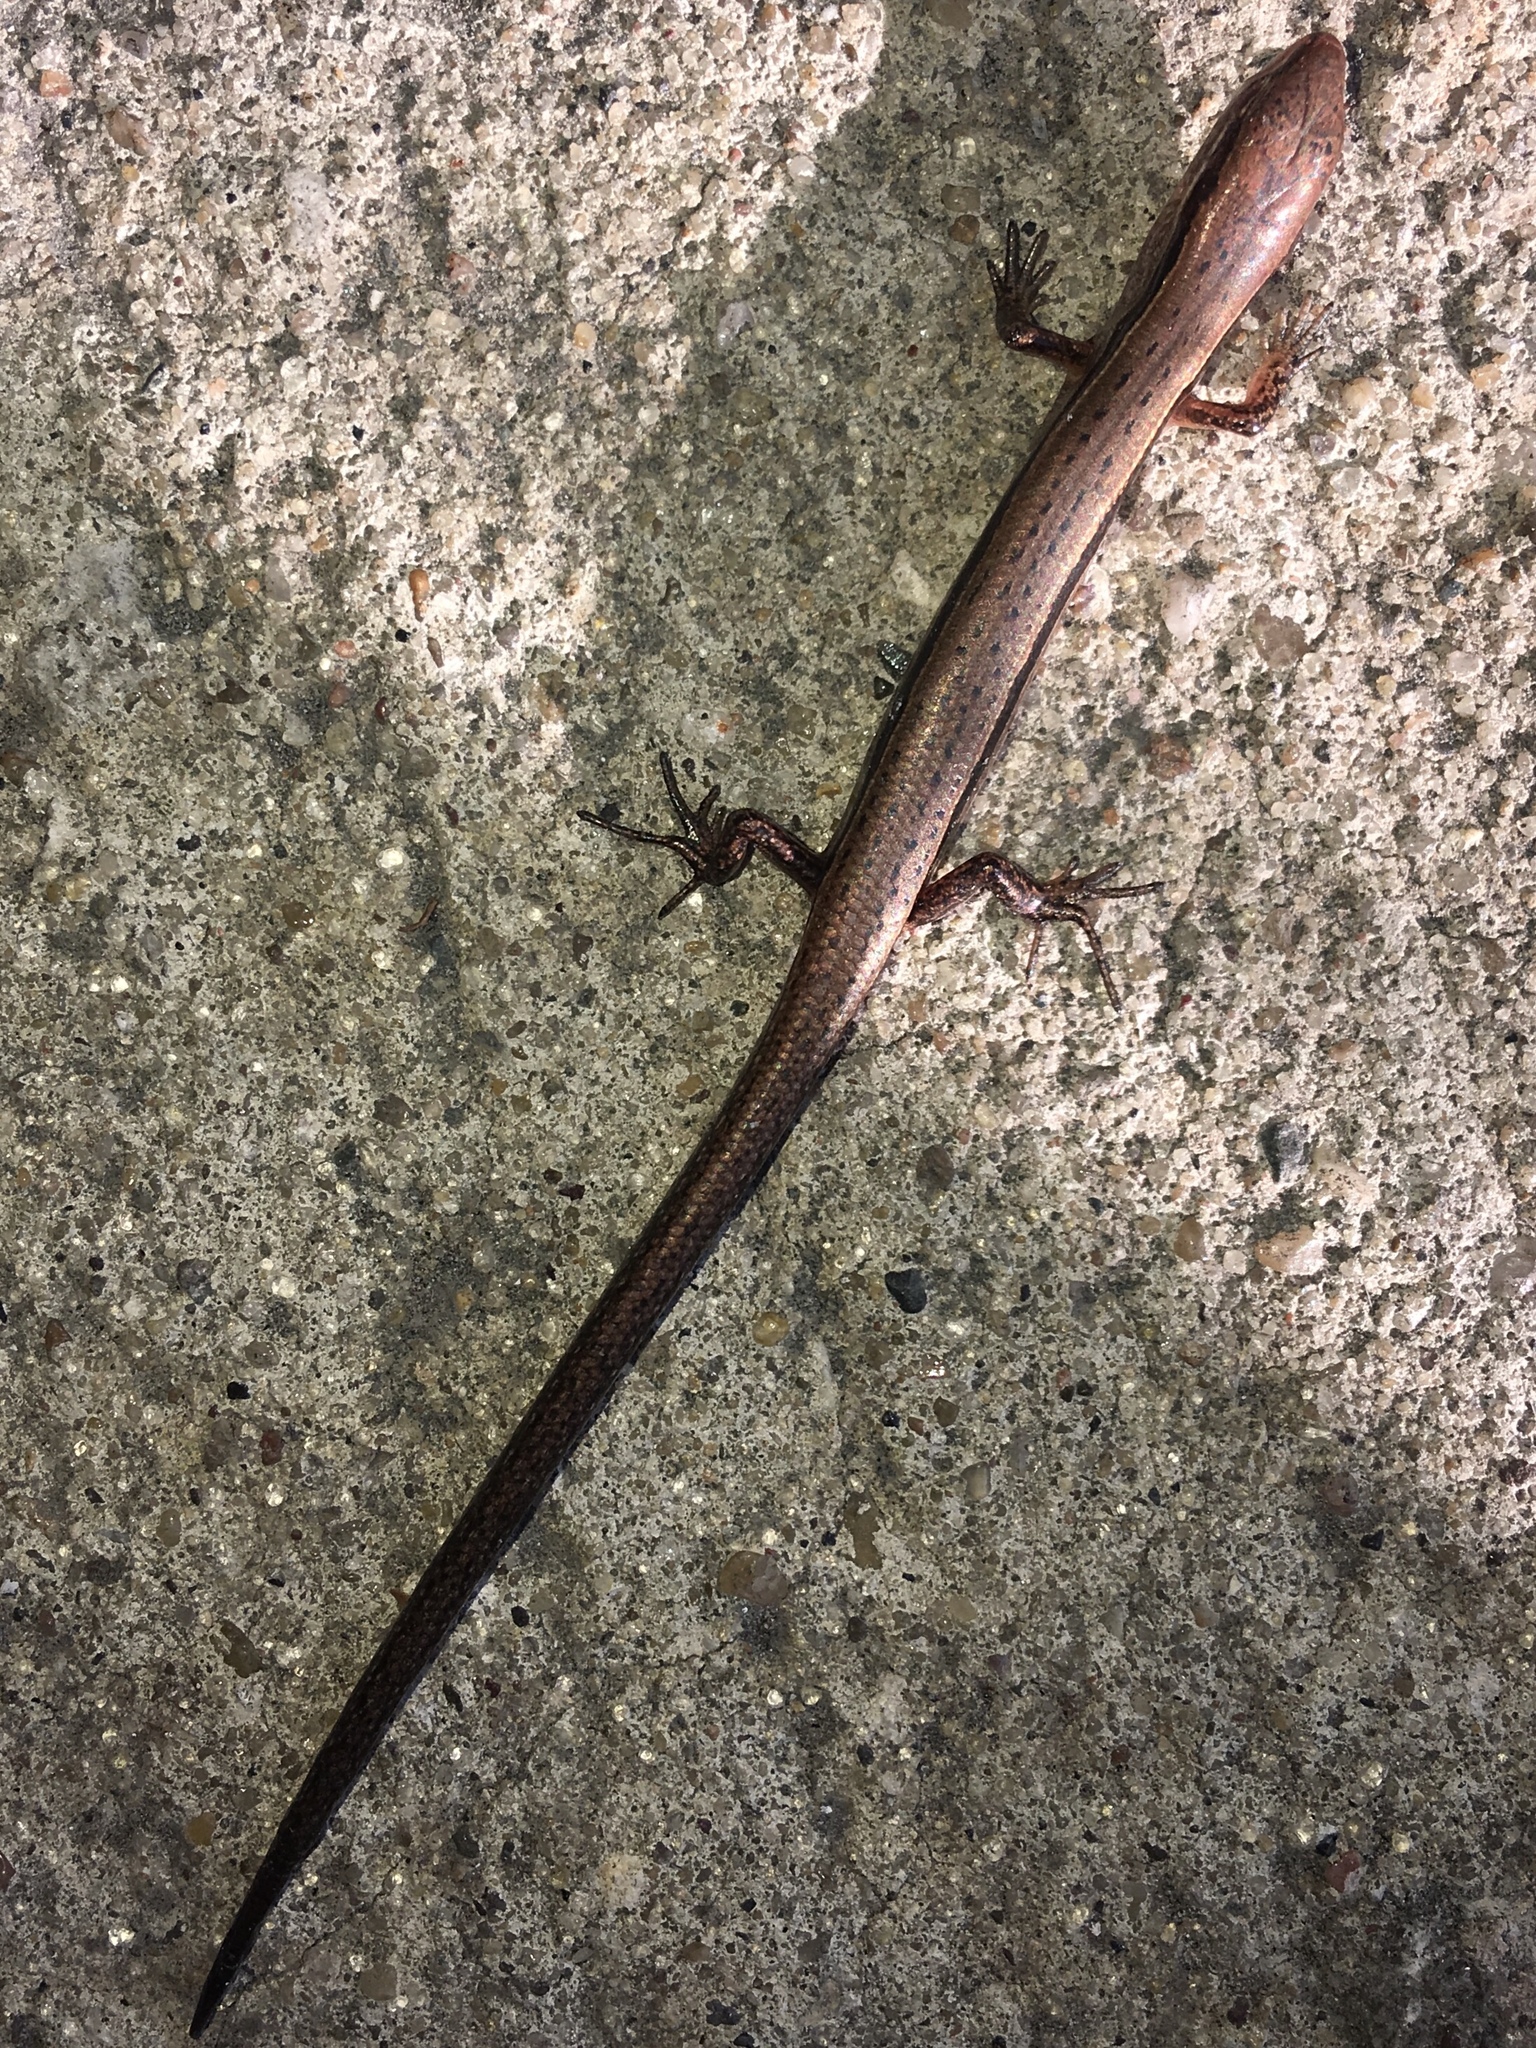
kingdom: Animalia
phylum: Chordata
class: Squamata
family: Scincidae
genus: Scincella
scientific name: Scincella lateralis
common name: Ground skink
